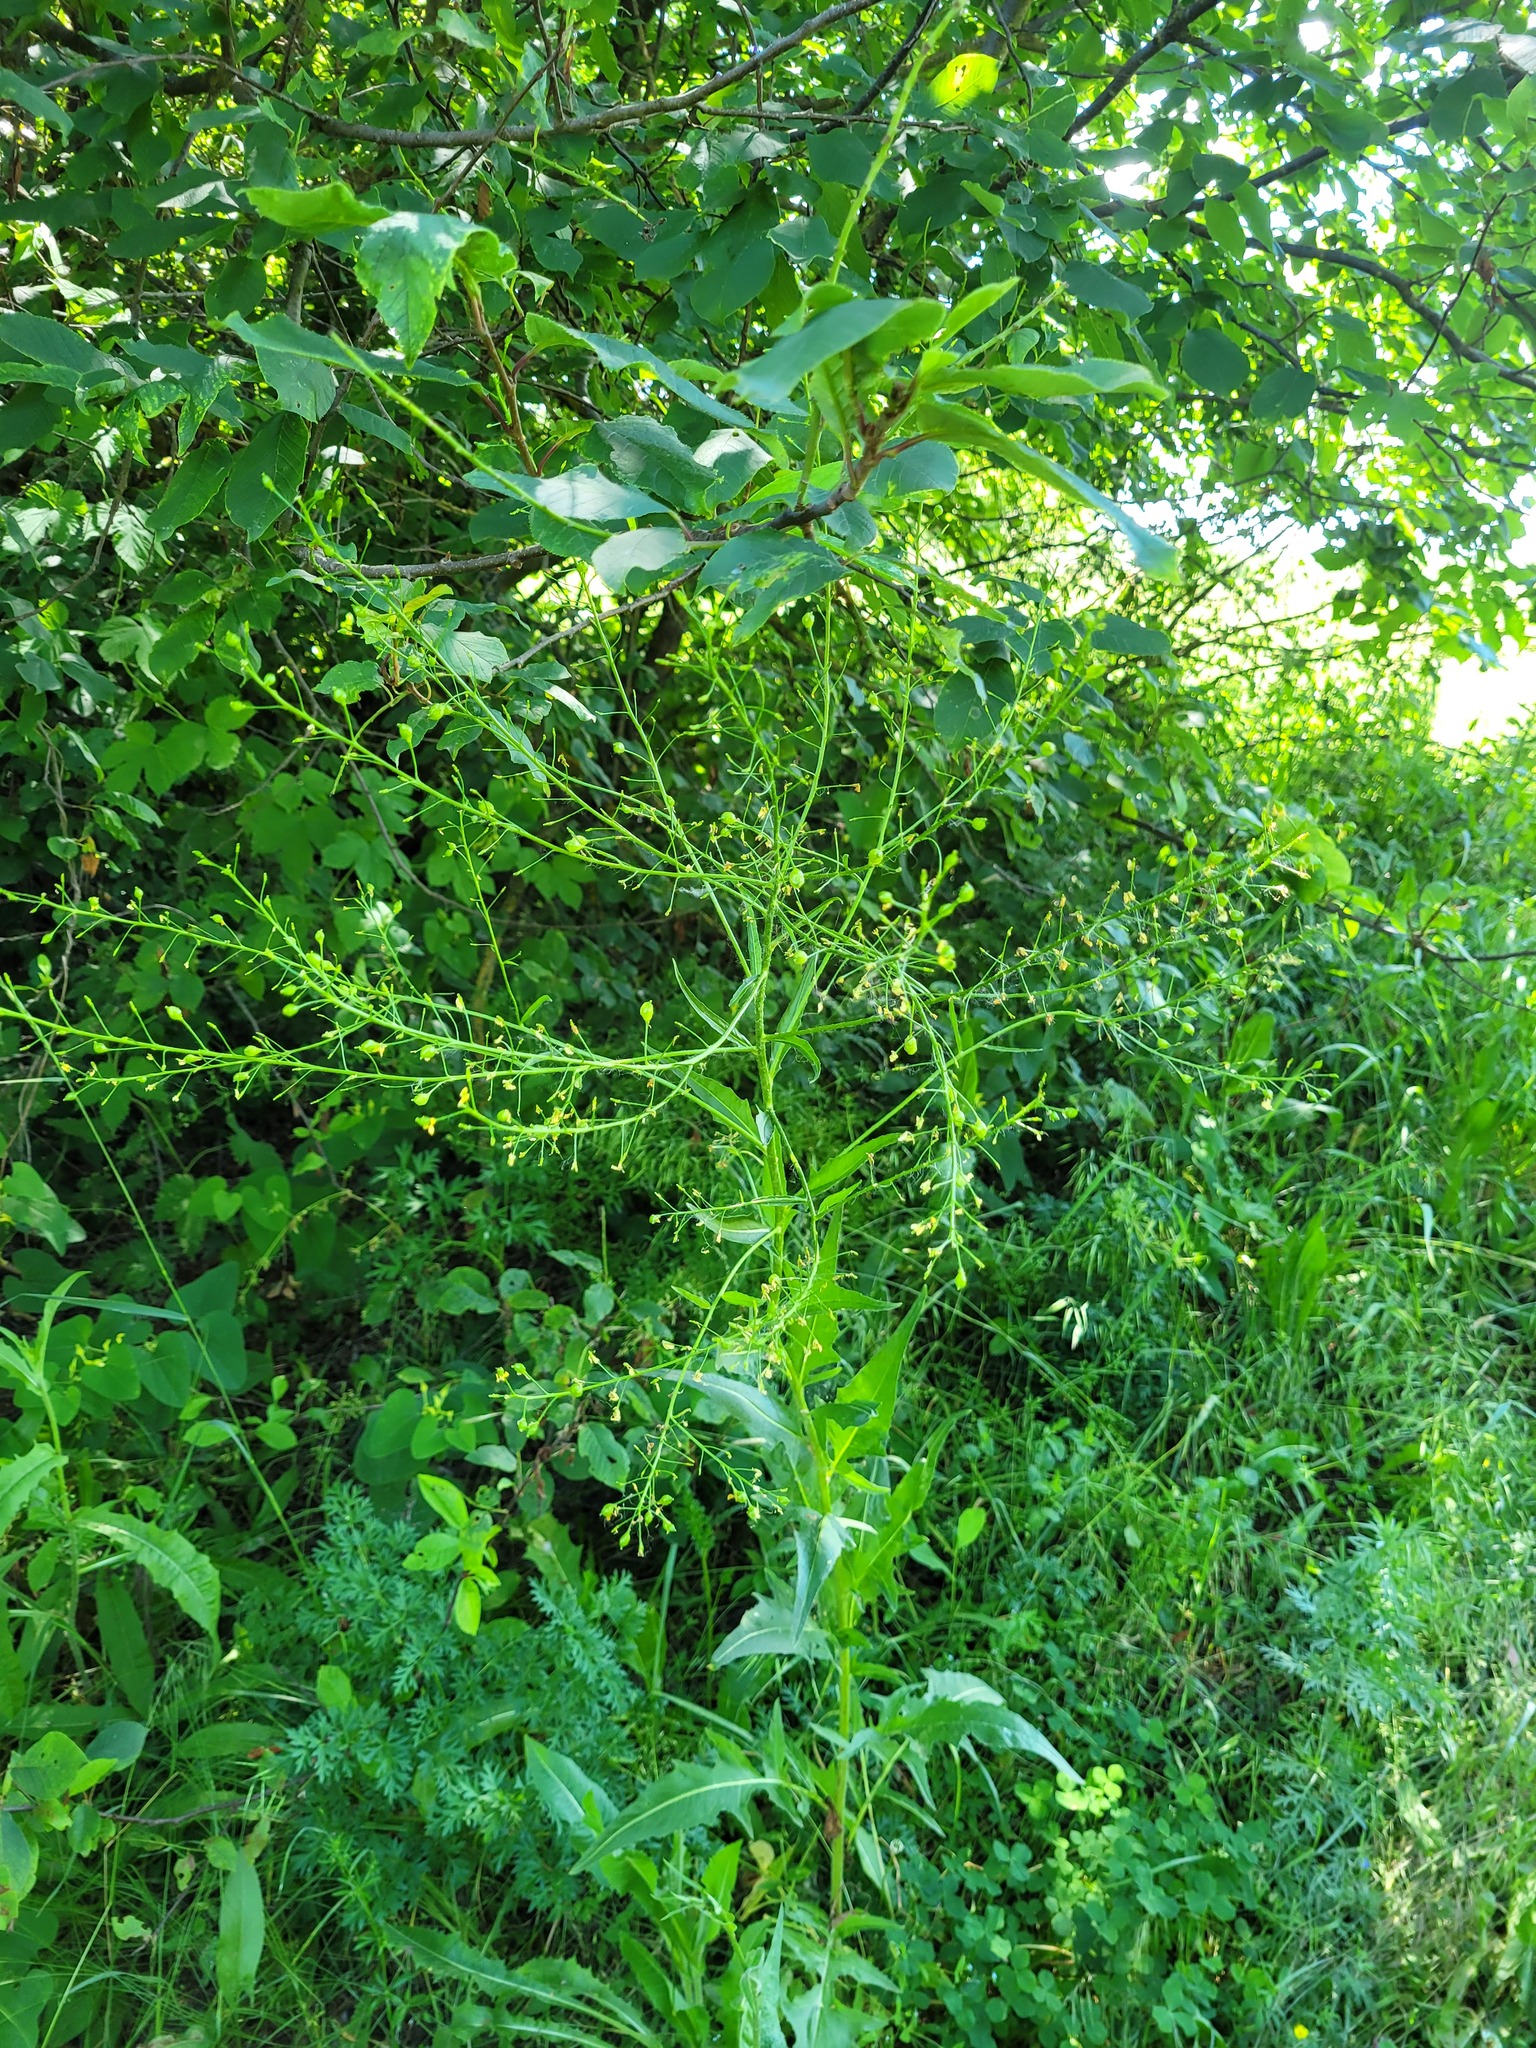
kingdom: Plantae
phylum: Tracheophyta
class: Magnoliopsida
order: Brassicales
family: Brassicaceae
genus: Bunias
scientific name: Bunias orientalis
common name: Warty-cabbage
